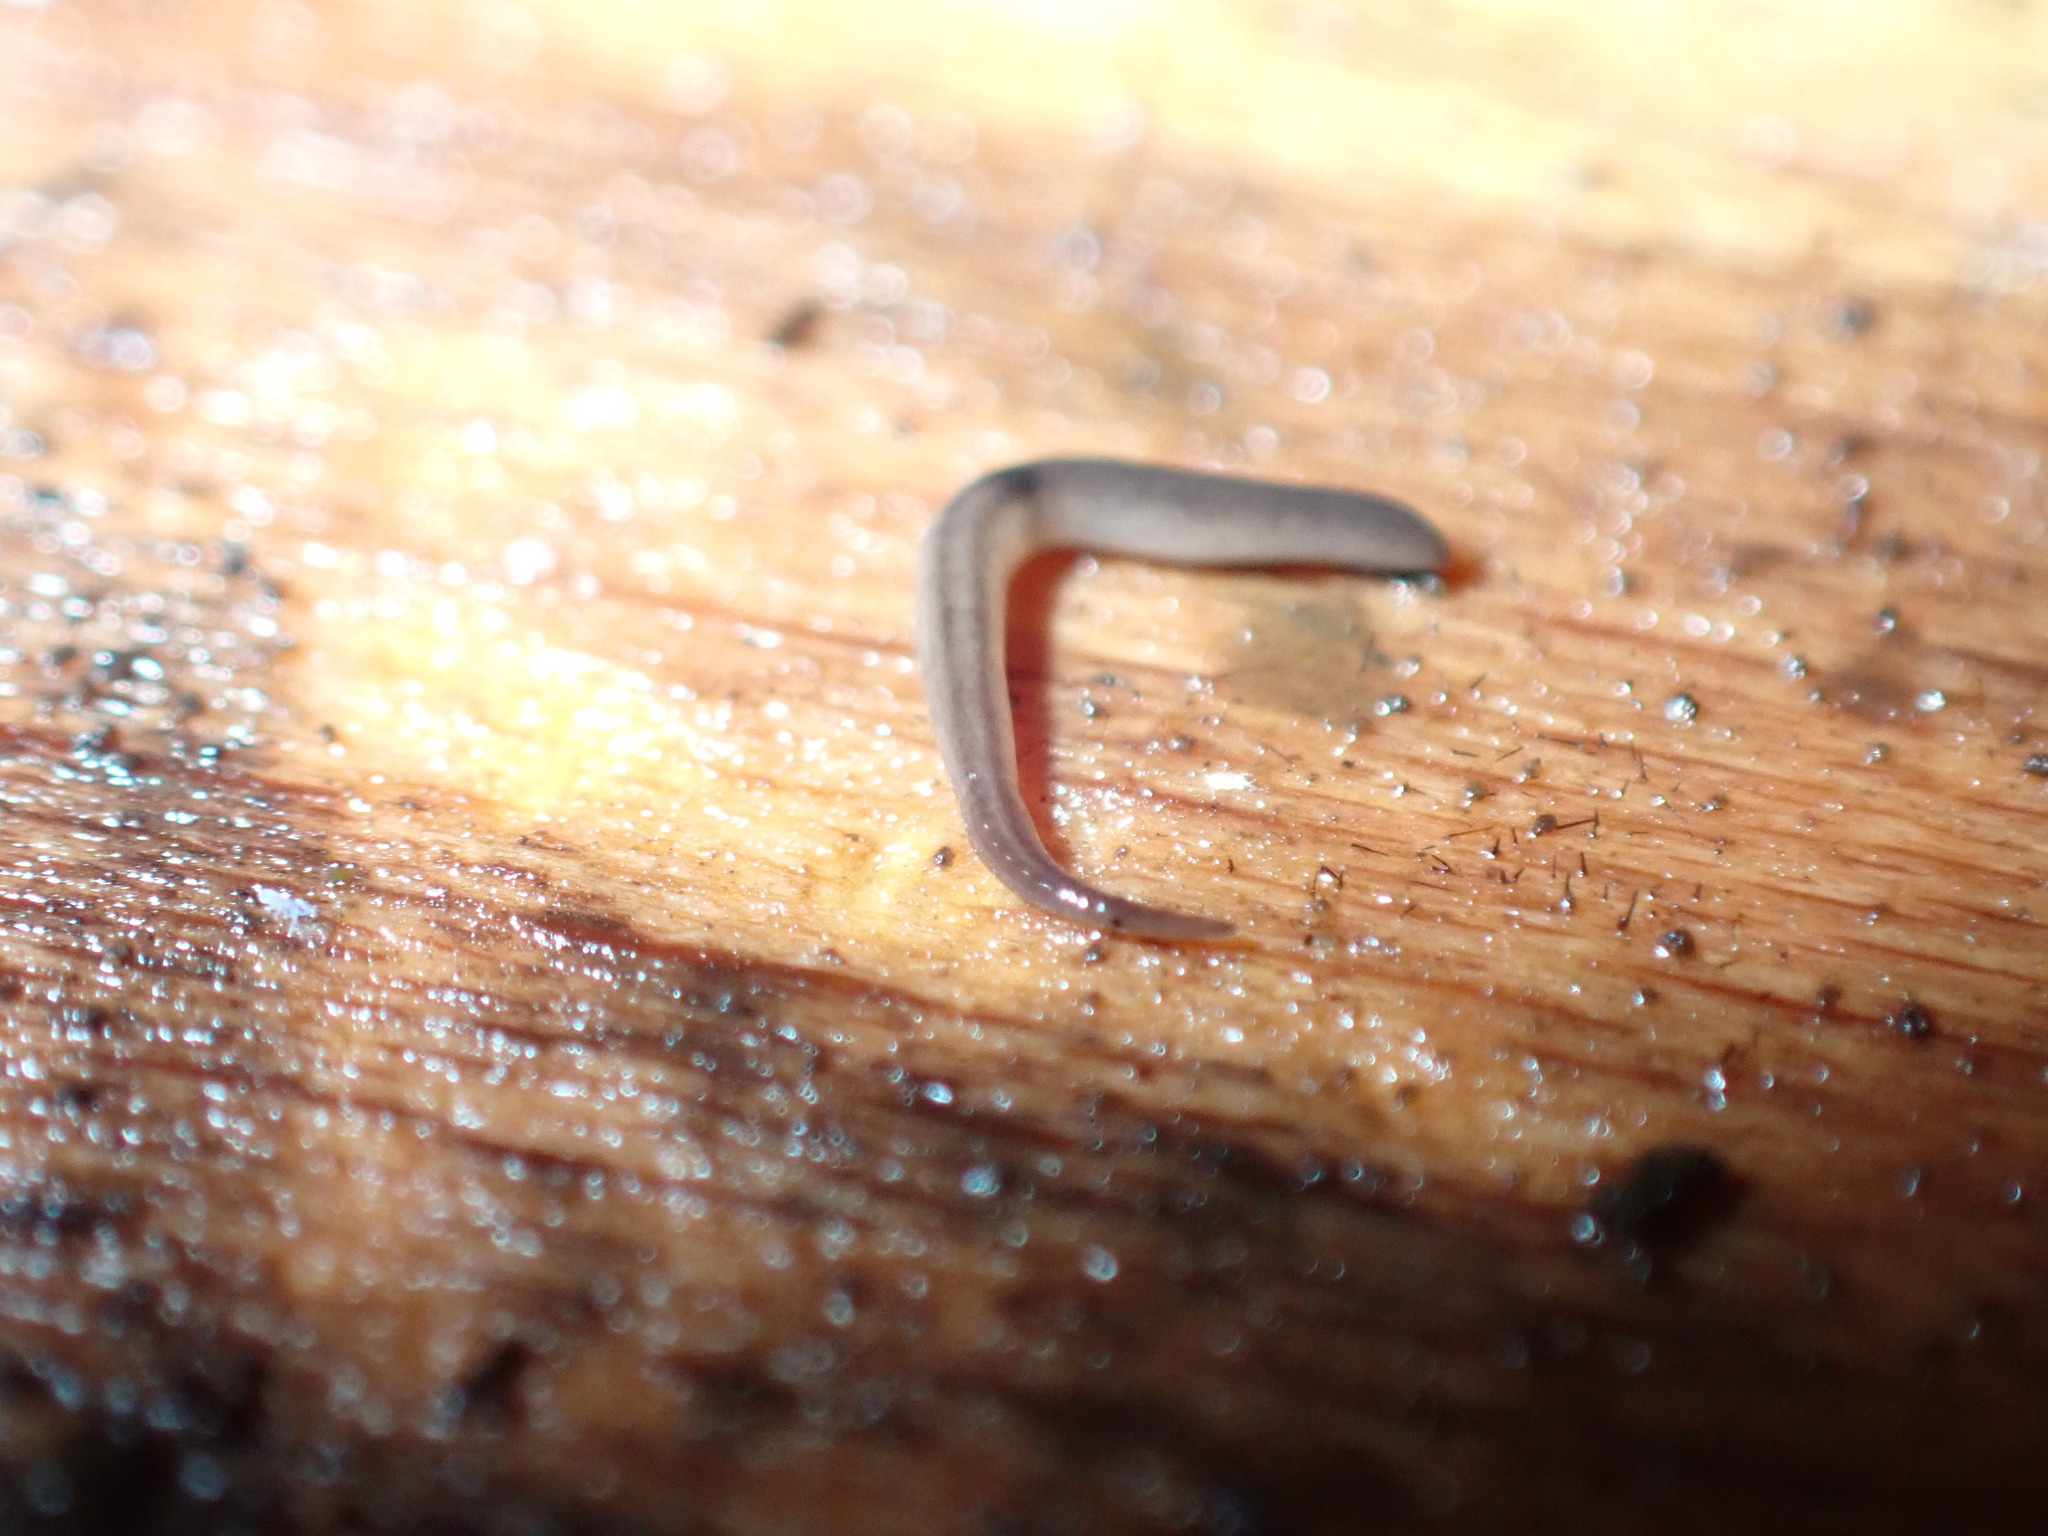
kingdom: Animalia
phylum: Platyhelminthes
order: Tricladida
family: Geoplanidae
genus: Rhynchodemus
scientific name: Rhynchodemus sylvaticus
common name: A flatworm
